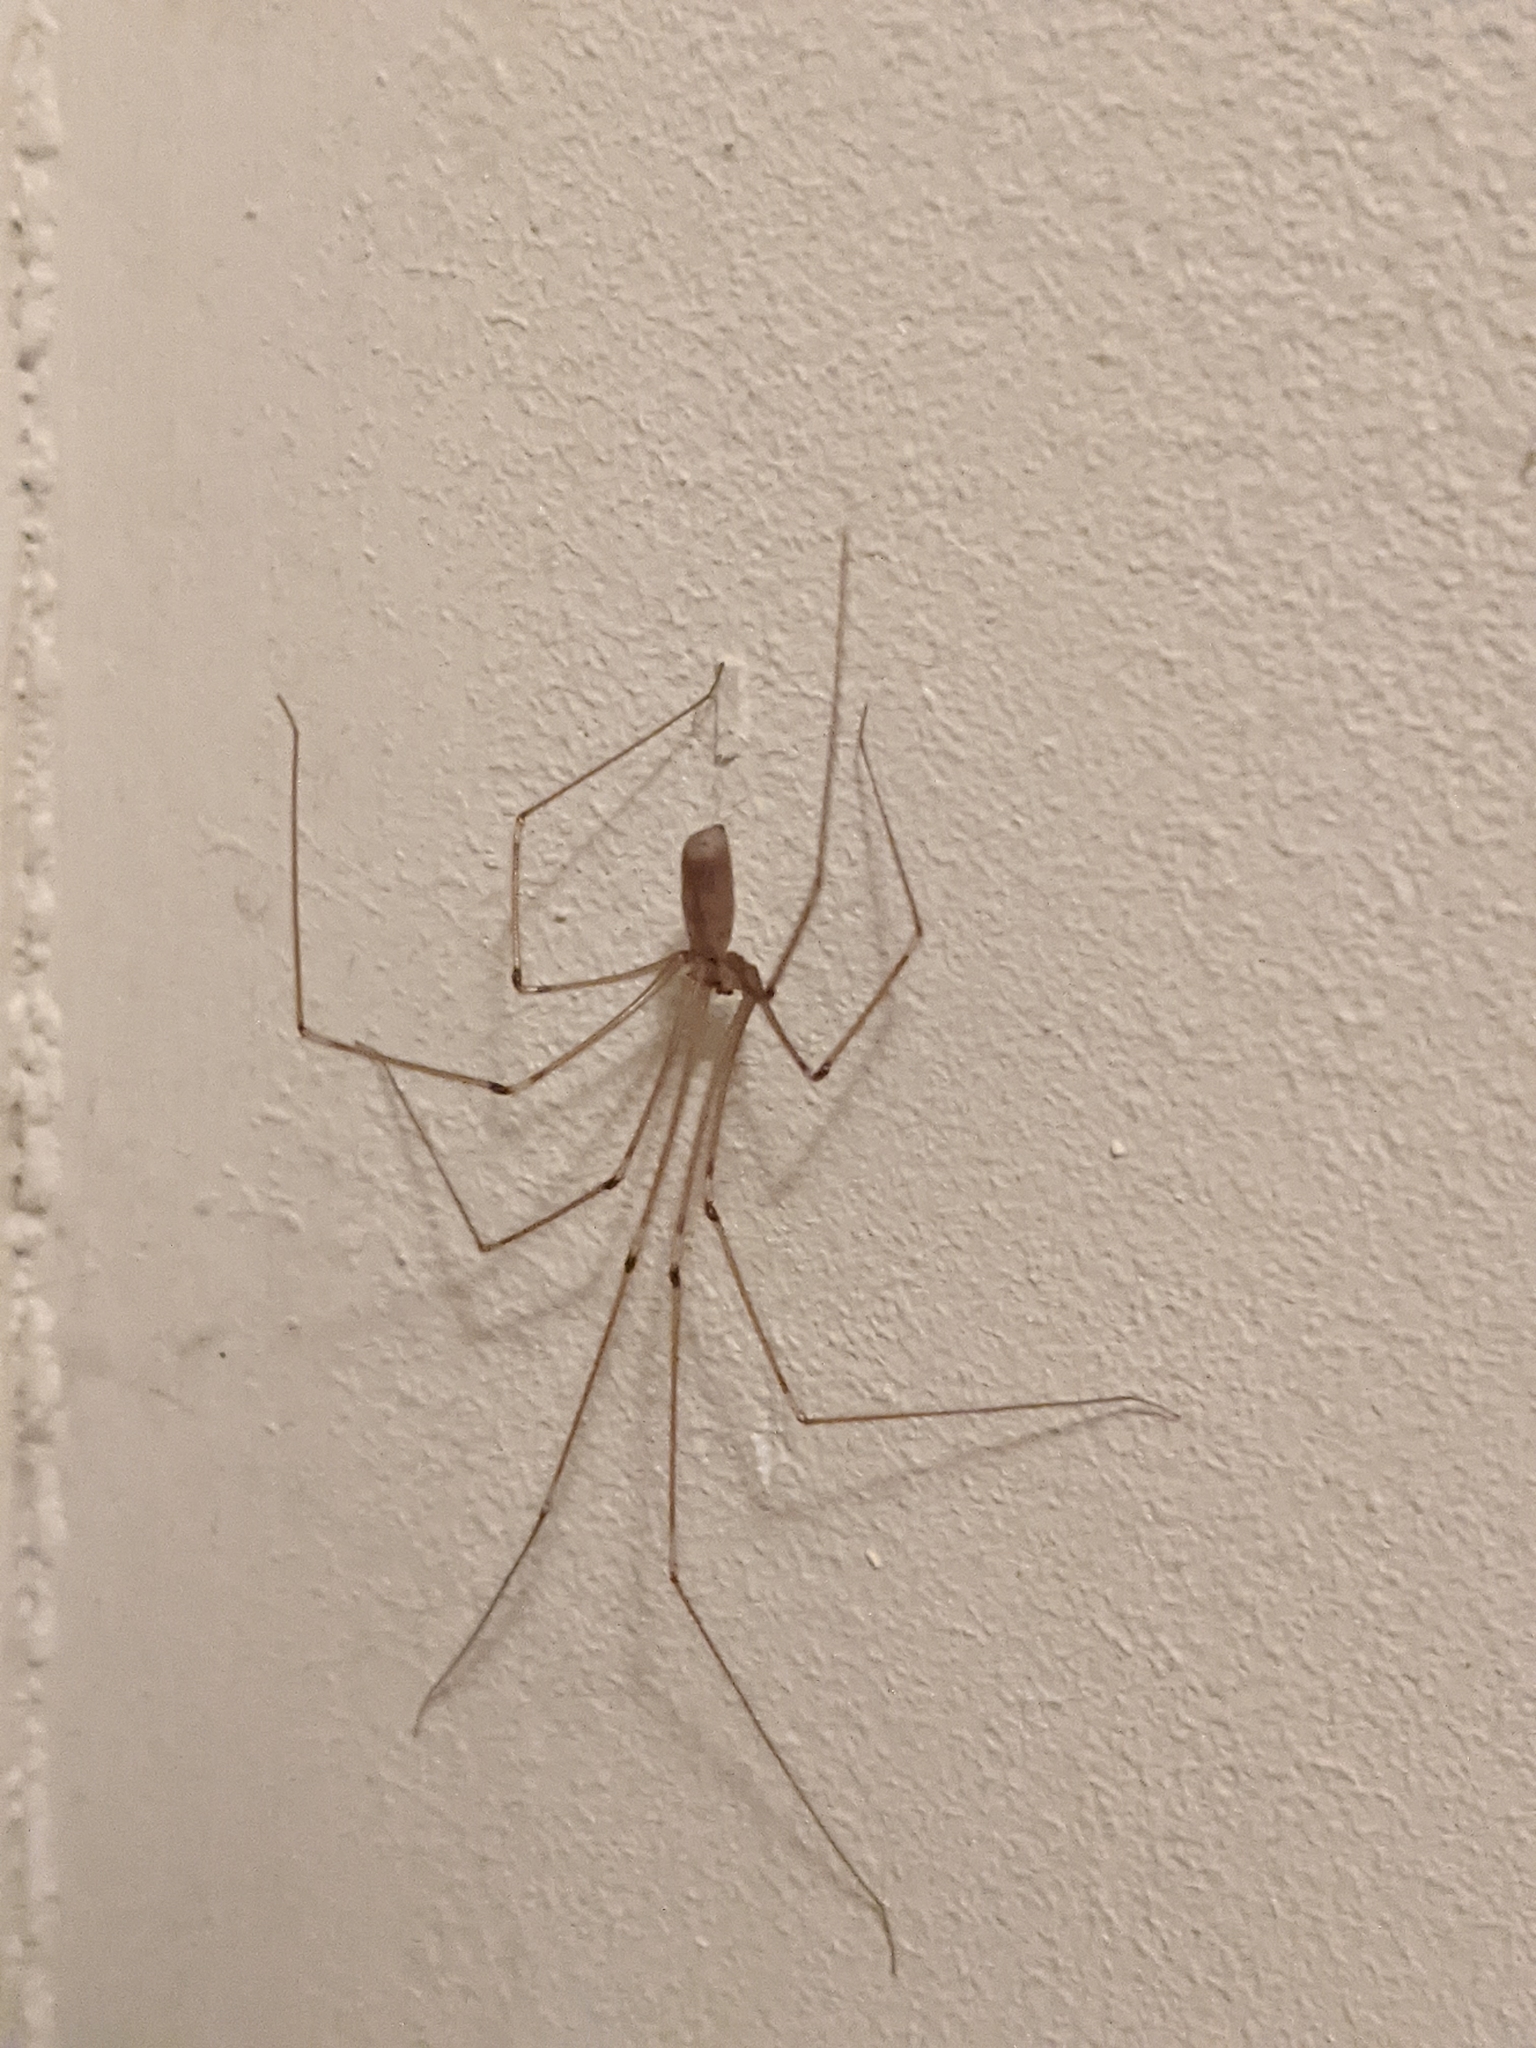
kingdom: Animalia
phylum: Arthropoda
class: Arachnida
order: Araneae
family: Pholcidae
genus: Pholcus
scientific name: Pholcus phalangioides
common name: Longbodied cellar spider
